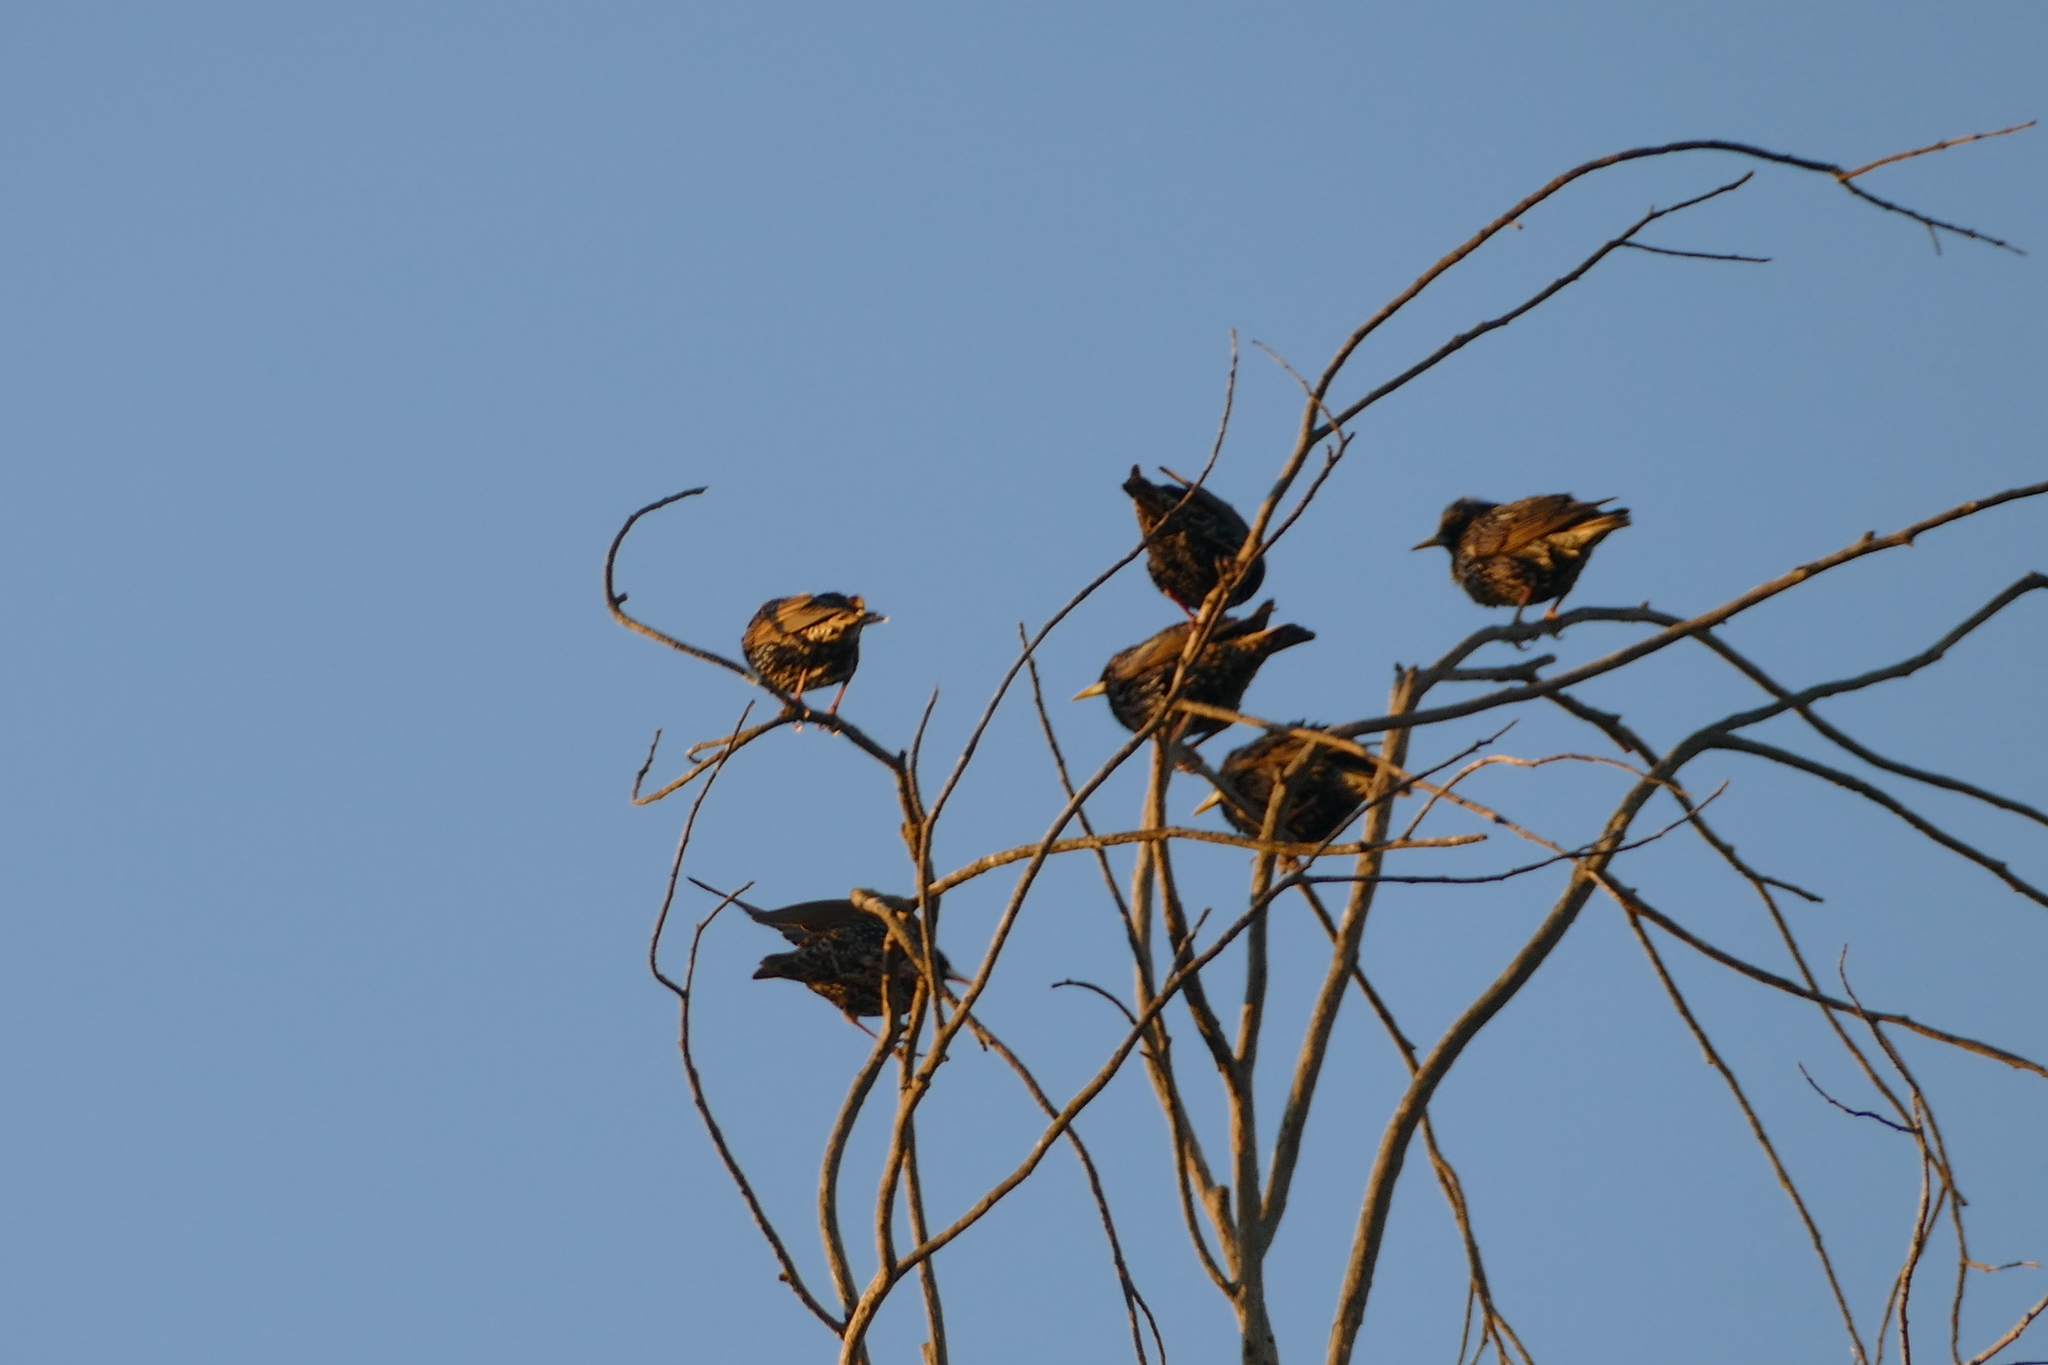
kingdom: Animalia
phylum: Chordata
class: Aves
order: Passeriformes
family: Sturnidae
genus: Sturnus
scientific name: Sturnus vulgaris
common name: Common starling
